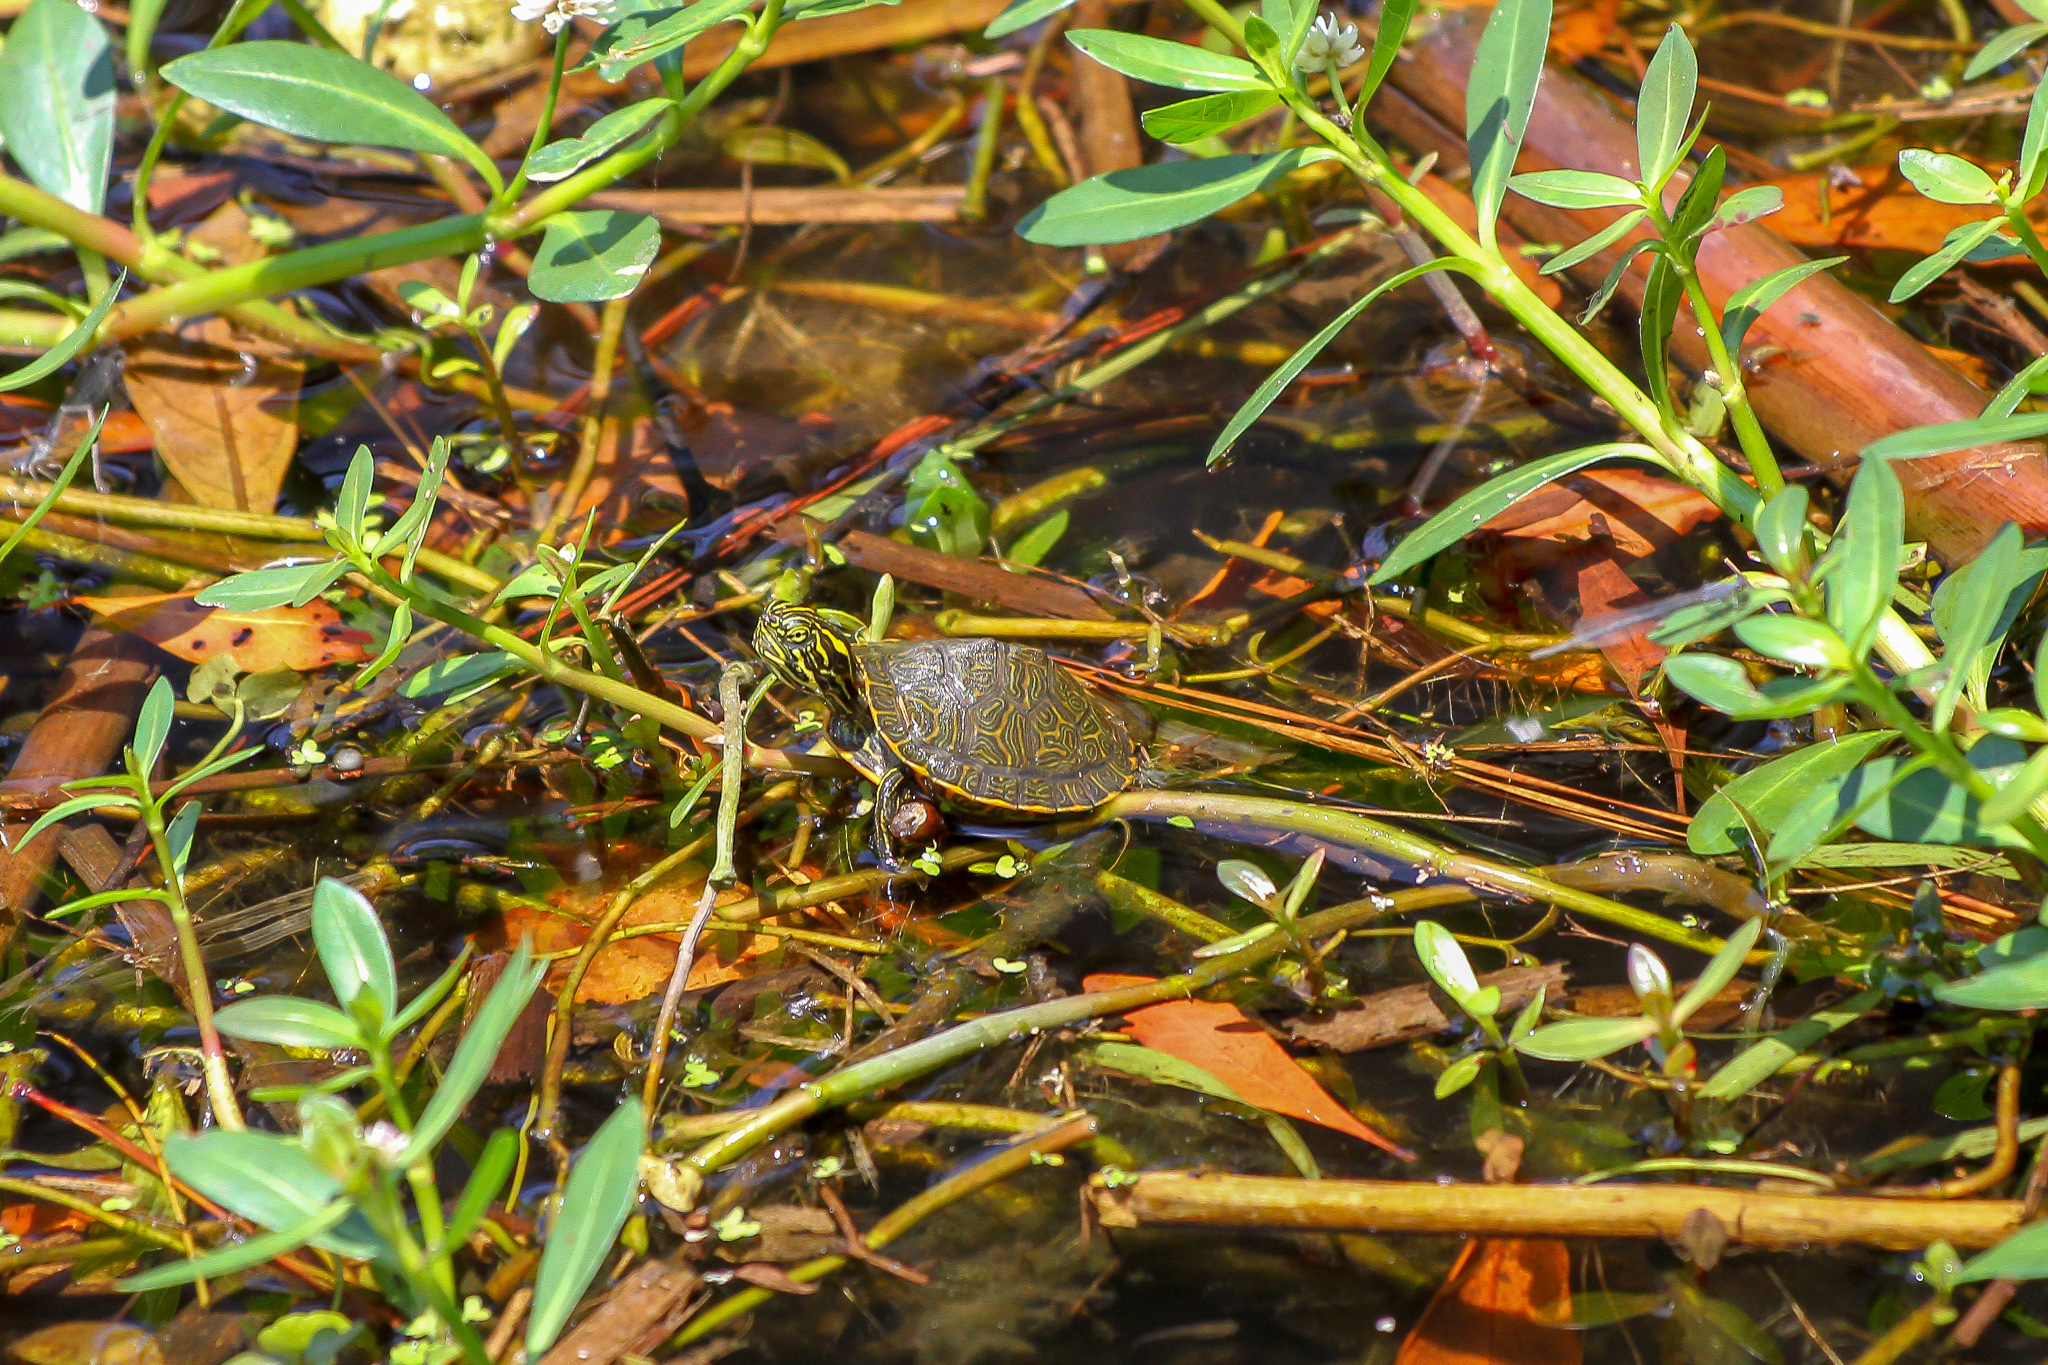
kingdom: Animalia
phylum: Chordata
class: Testudines
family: Emydidae
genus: Pseudemys
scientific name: Pseudemys rubriventris
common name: American red-bellied turtle
